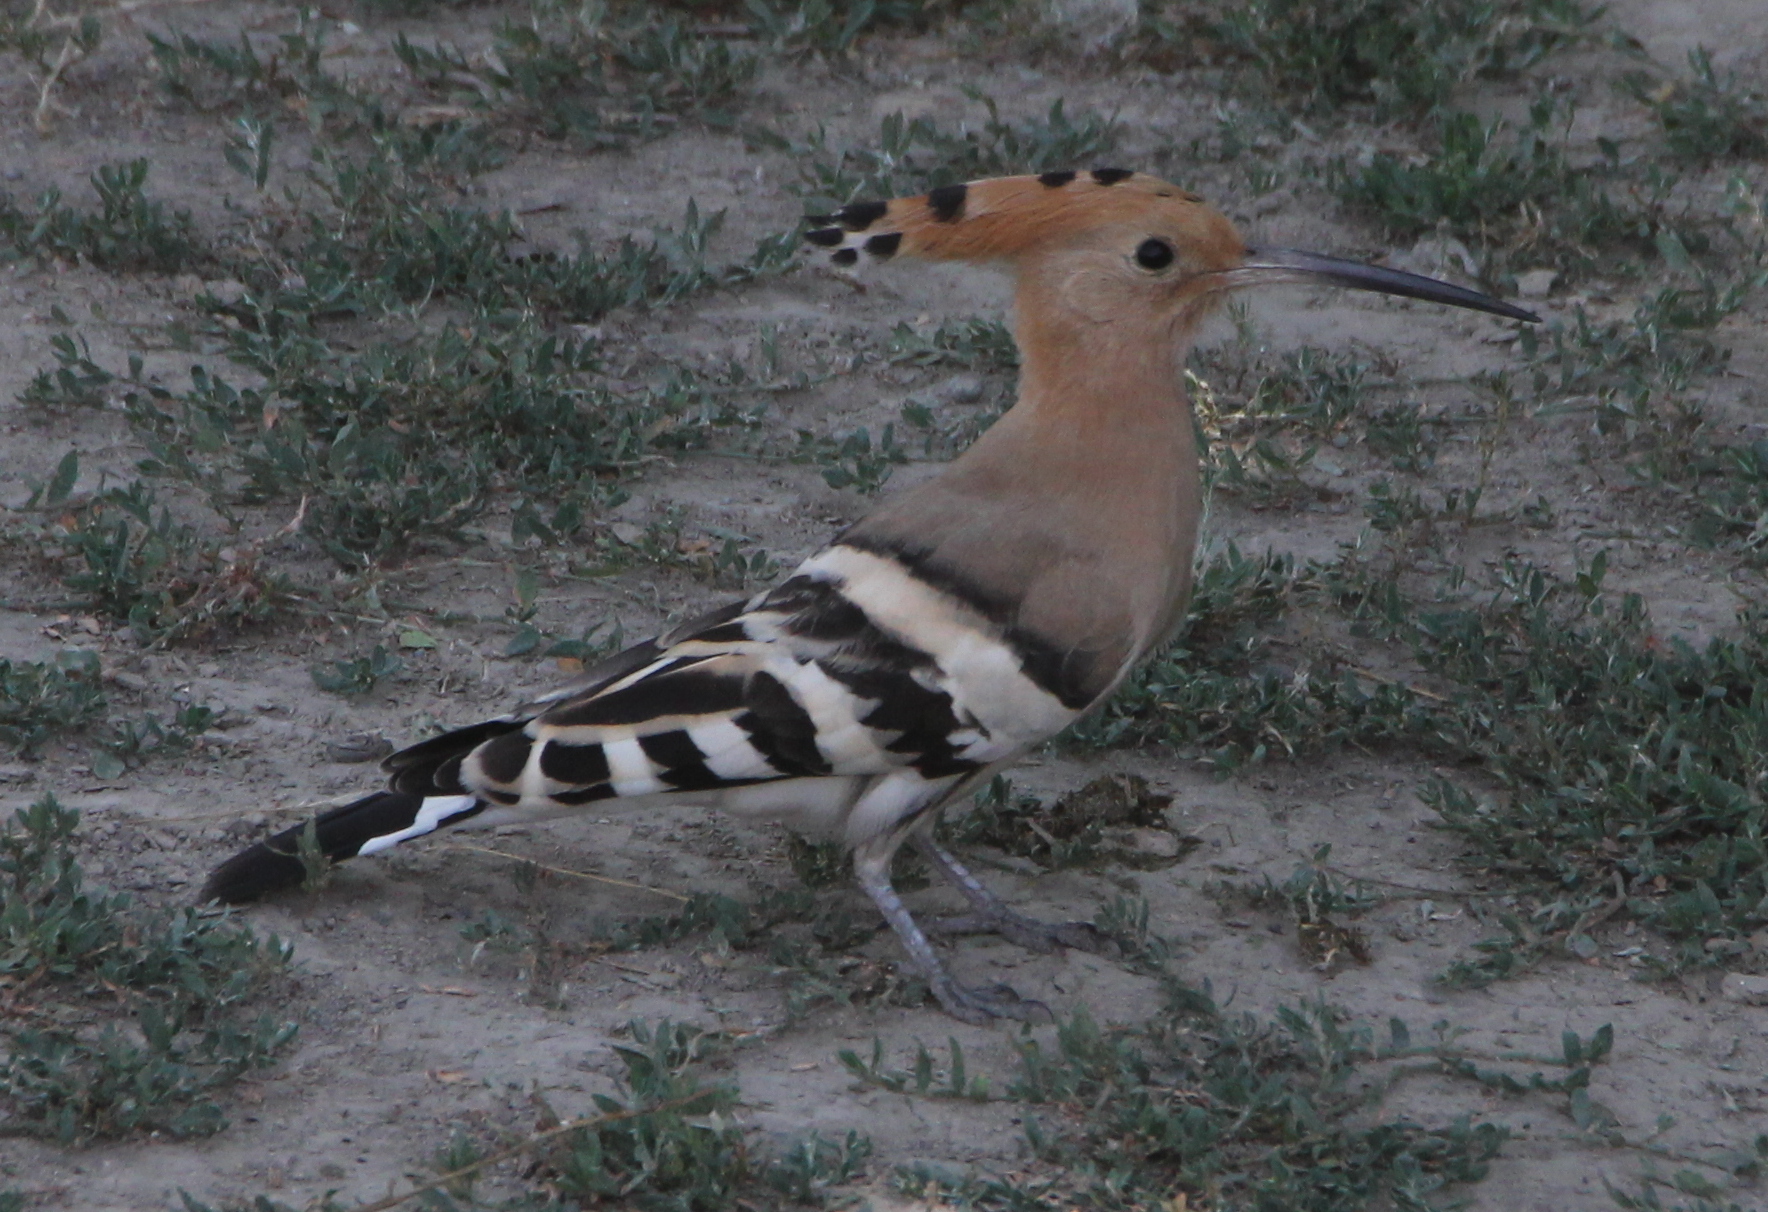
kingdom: Animalia
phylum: Chordata
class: Aves
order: Bucerotiformes
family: Upupidae
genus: Upupa
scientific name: Upupa epops
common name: Eurasian hoopoe
